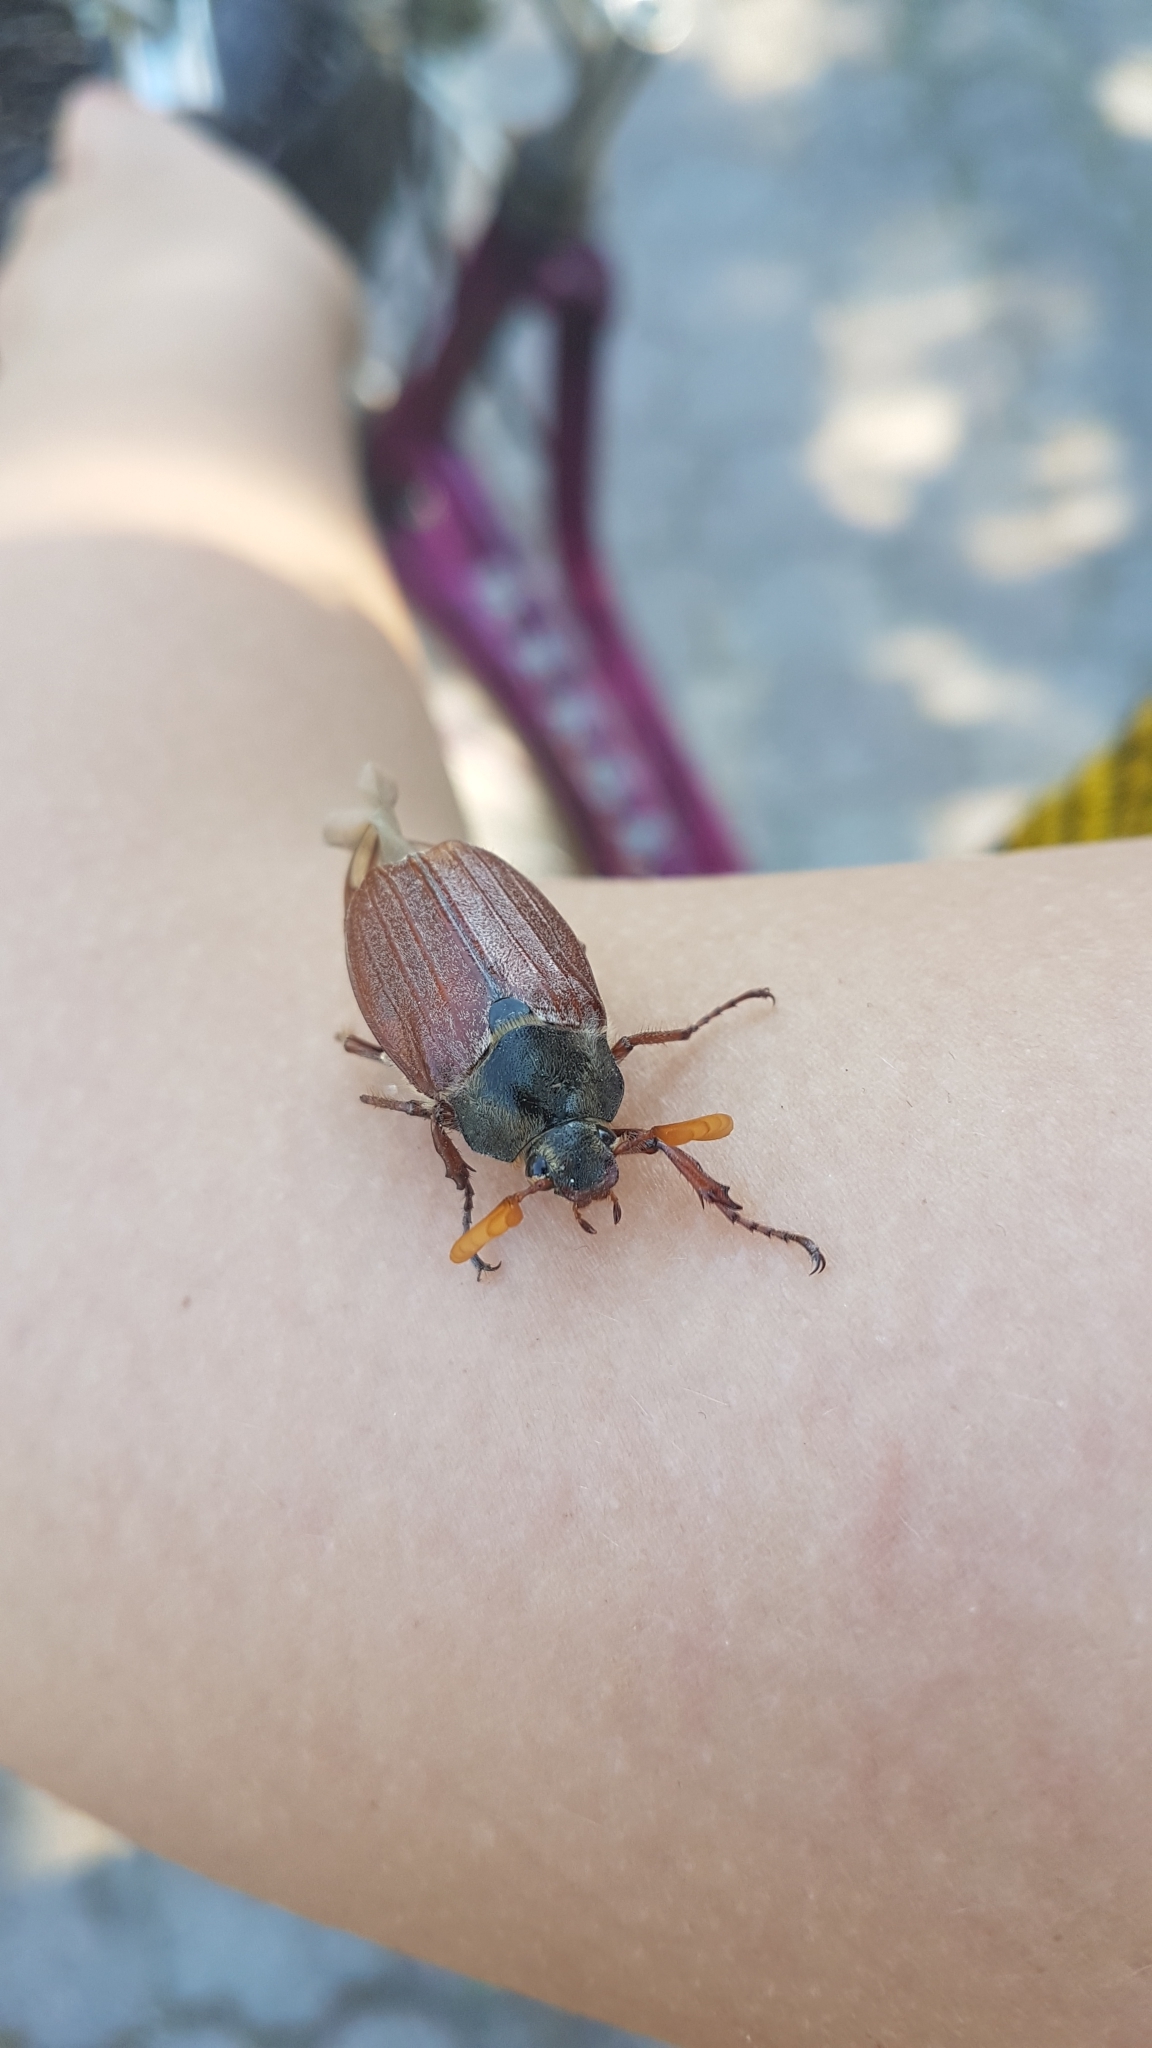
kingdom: Animalia
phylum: Arthropoda
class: Insecta
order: Coleoptera
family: Scarabaeidae
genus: Melolontha
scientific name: Melolontha melolontha
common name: Cockchafer maybeetle
